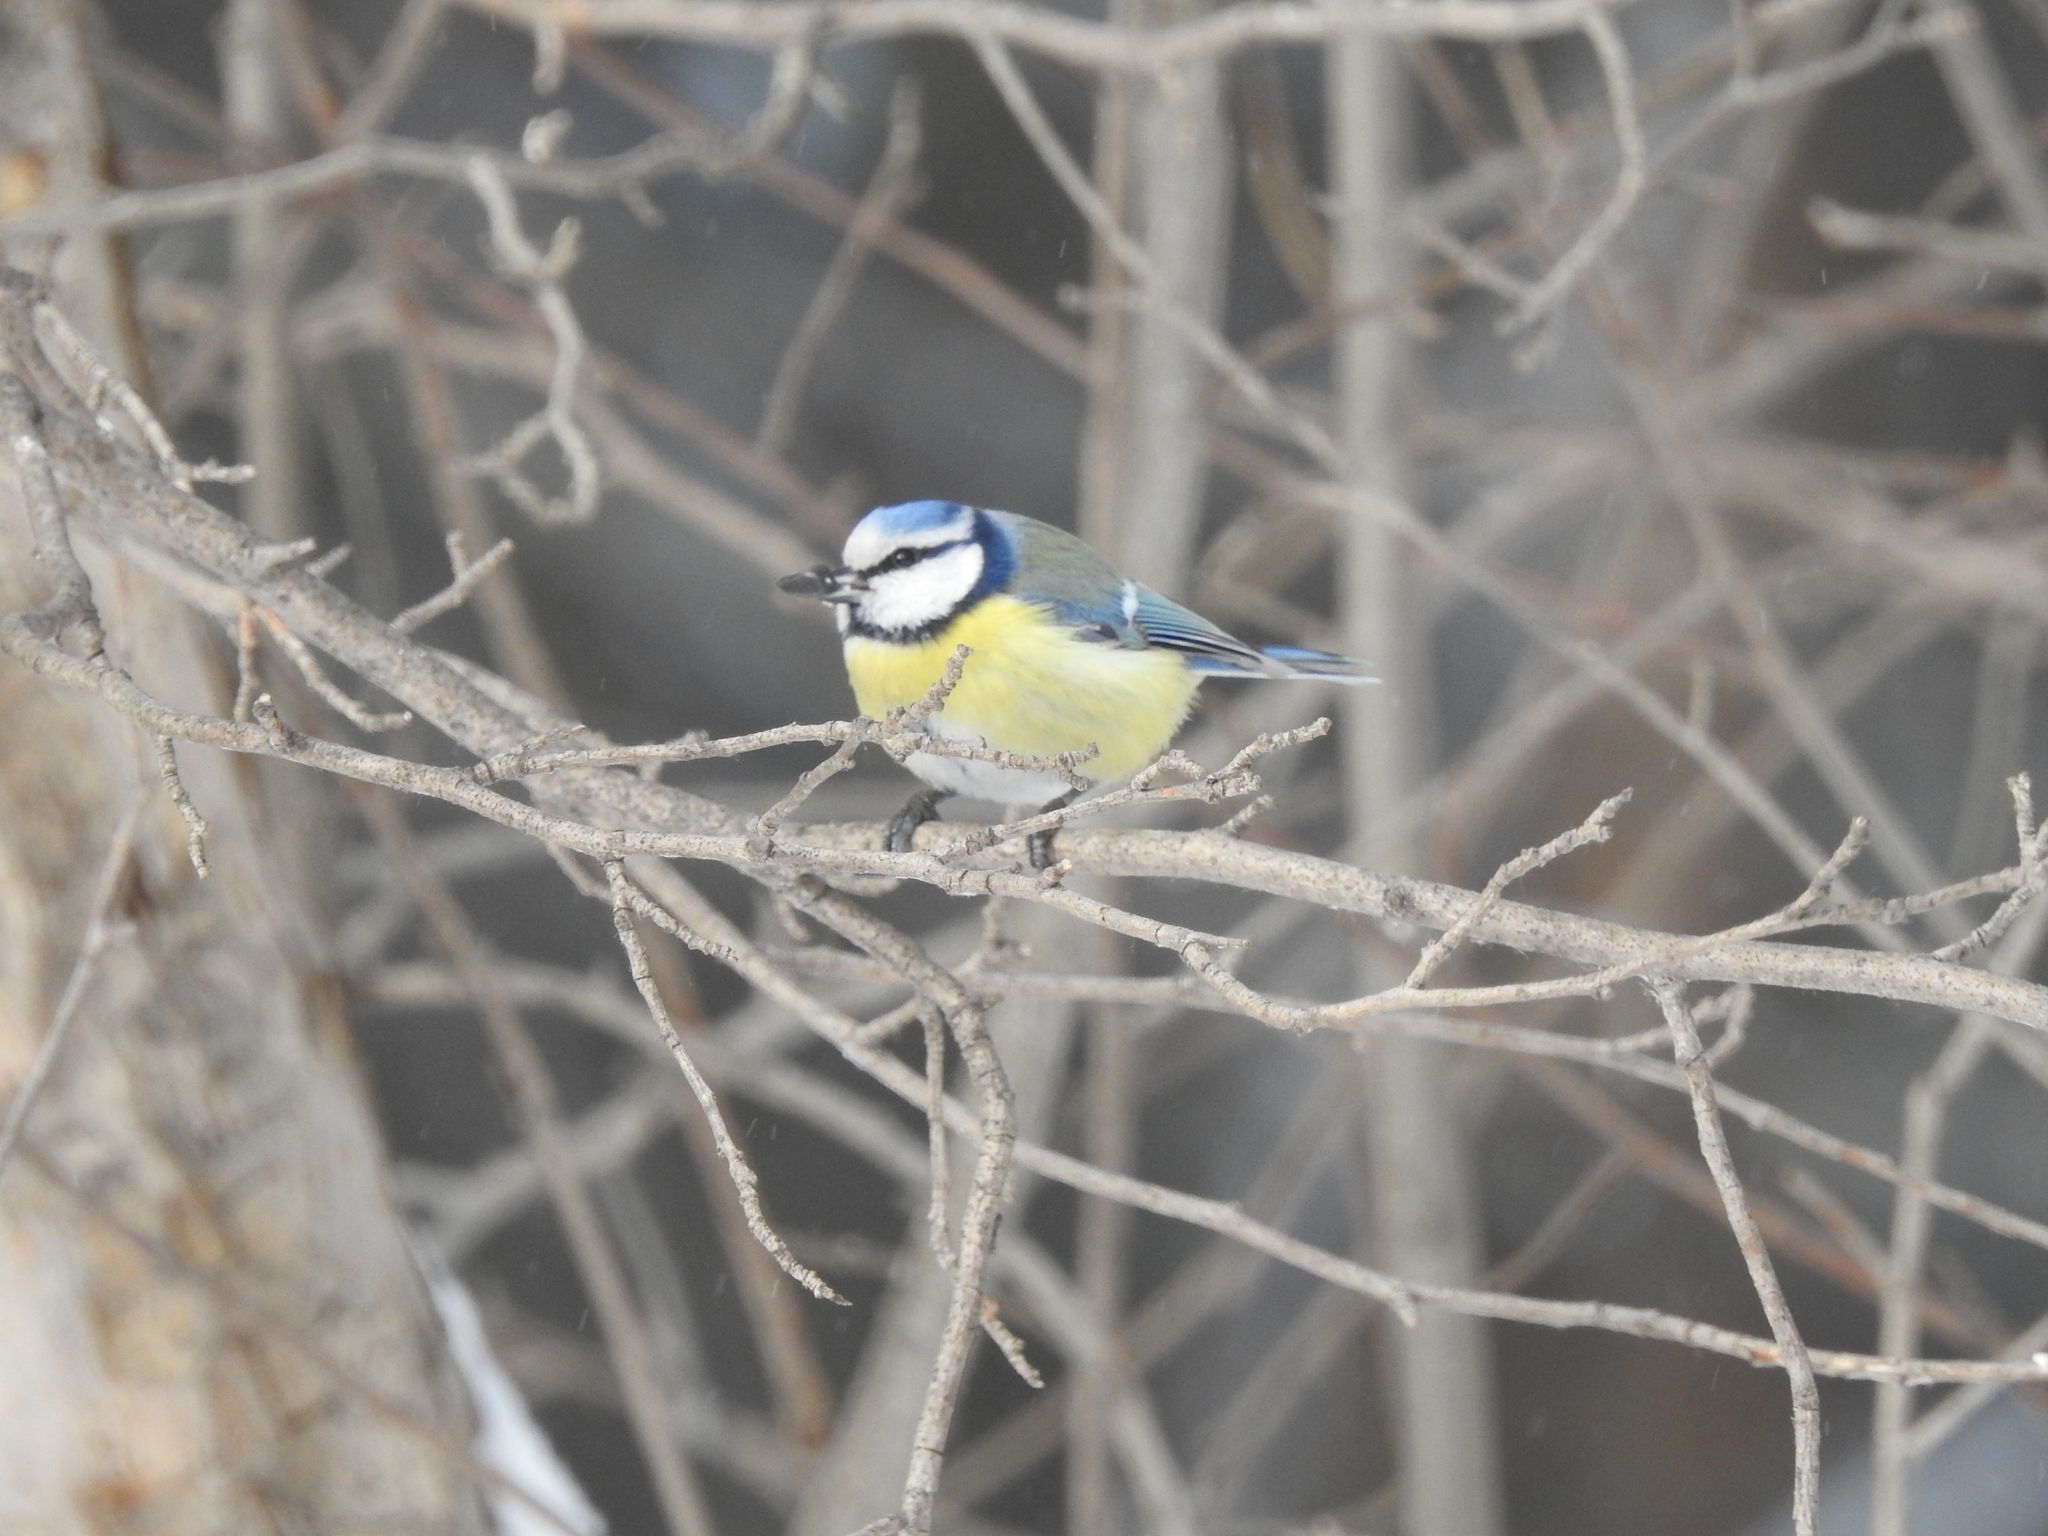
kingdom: Animalia
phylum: Chordata
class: Aves
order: Passeriformes
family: Paridae
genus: Cyanistes
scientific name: Cyanistes caeruleus
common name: Eurasian blue tit
